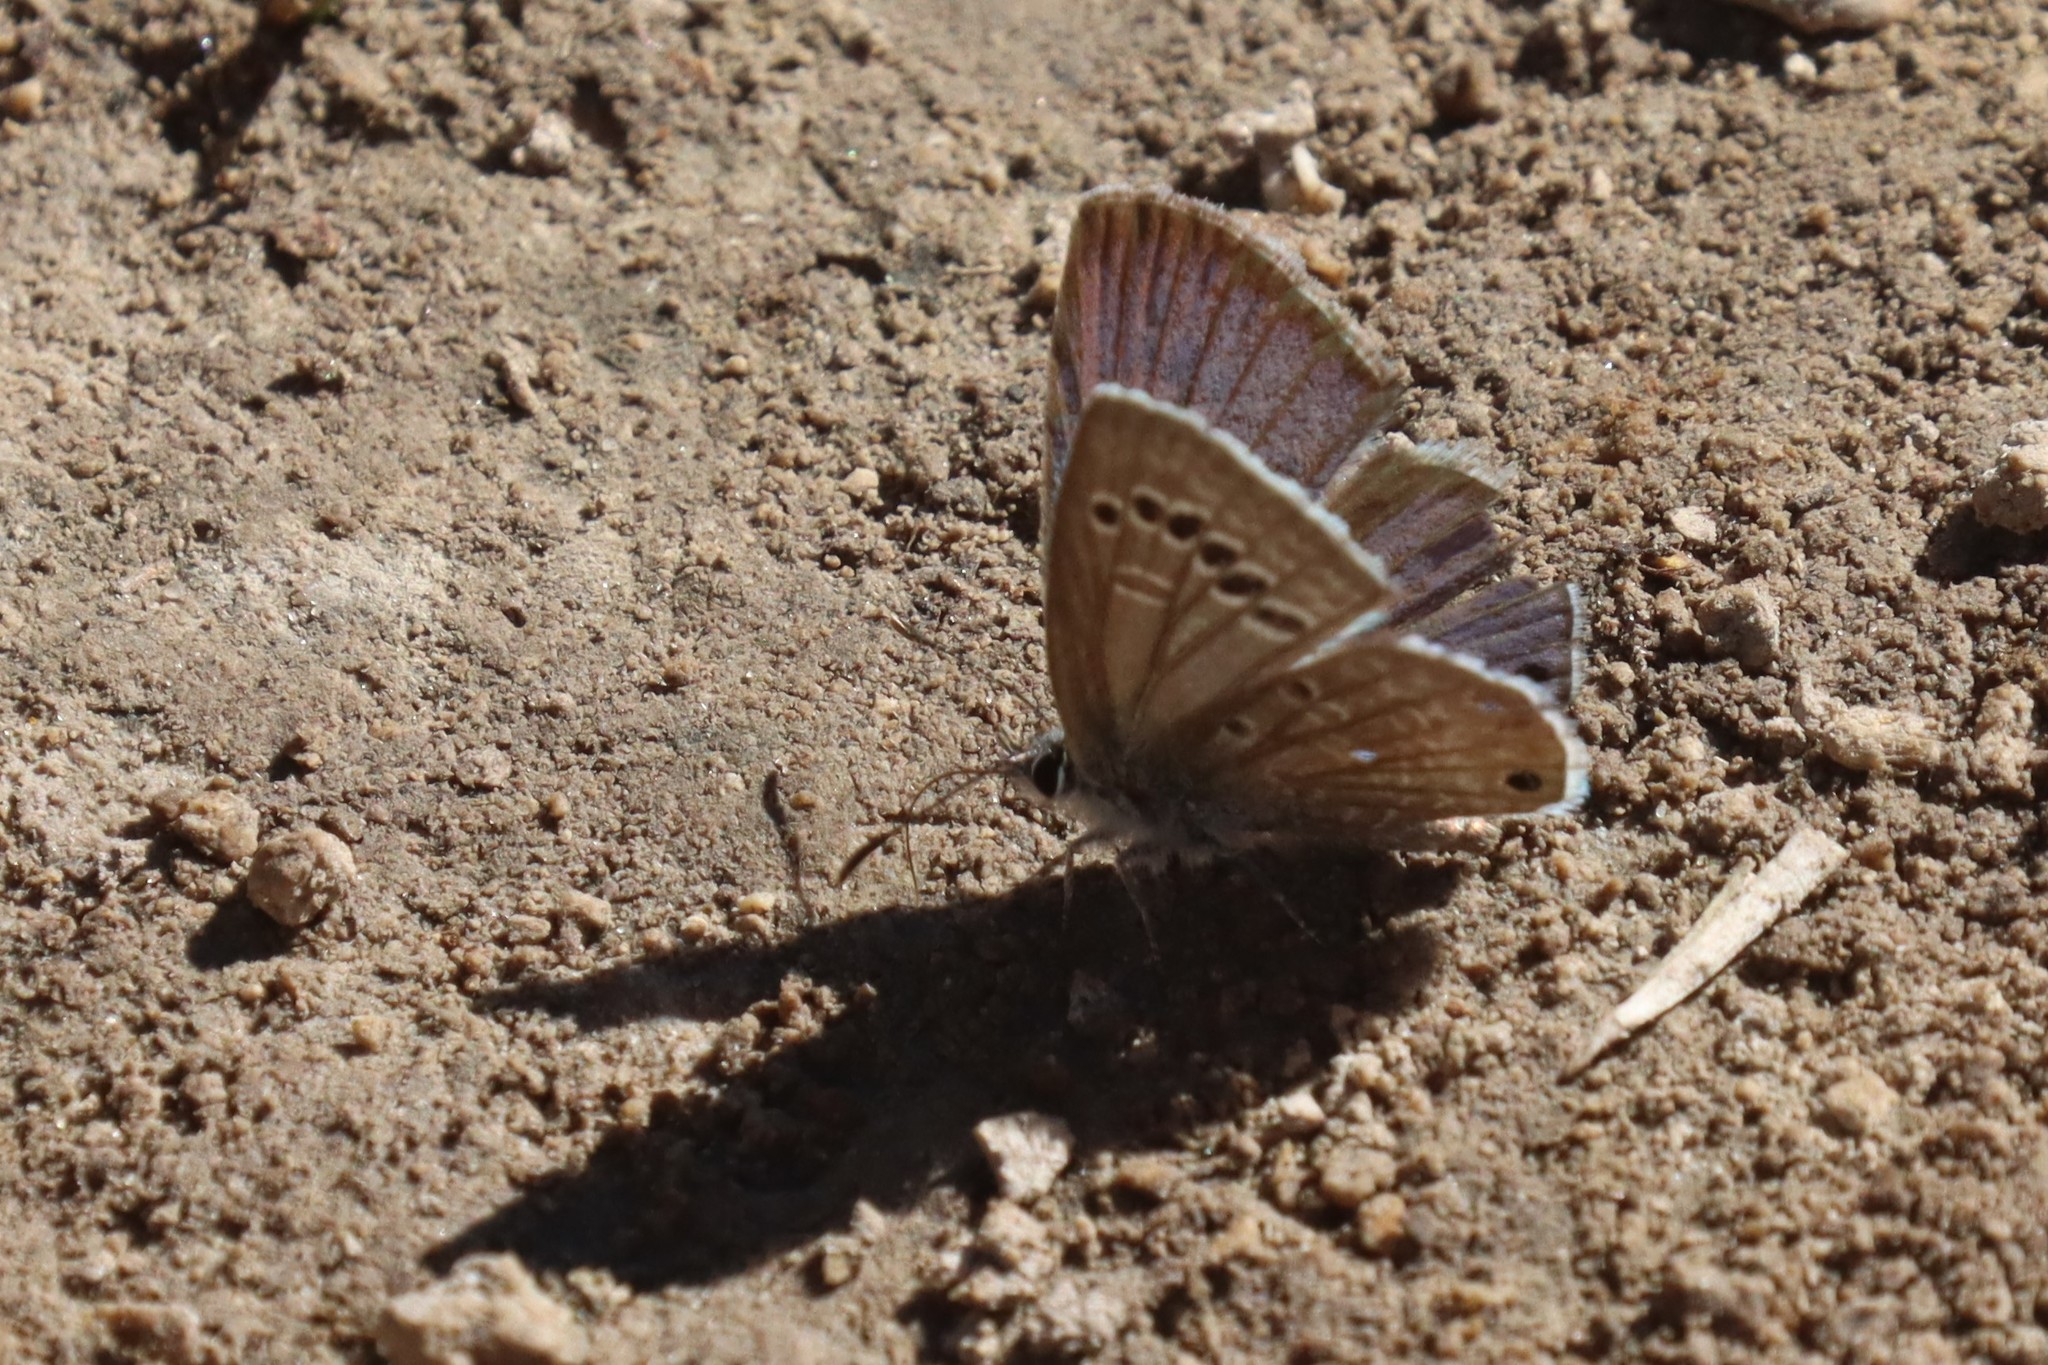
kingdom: Animalia
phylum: Arthropoda
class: Insecta
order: Lepidoptera
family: Lycaenidae
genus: Echinargus
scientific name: Echinargus isola
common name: Reakirt's blue
